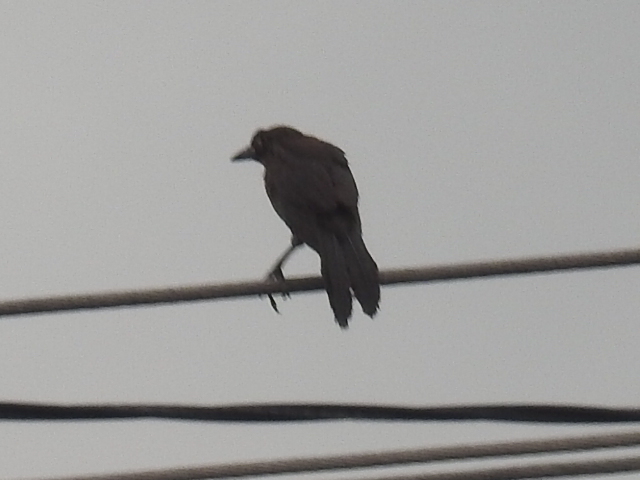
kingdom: Animalia
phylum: Chordata
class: Aves
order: Passeriformes
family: Icteridae
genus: Quiscalus
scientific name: Quiscalus mexicanus
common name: Great-tailed grackle
